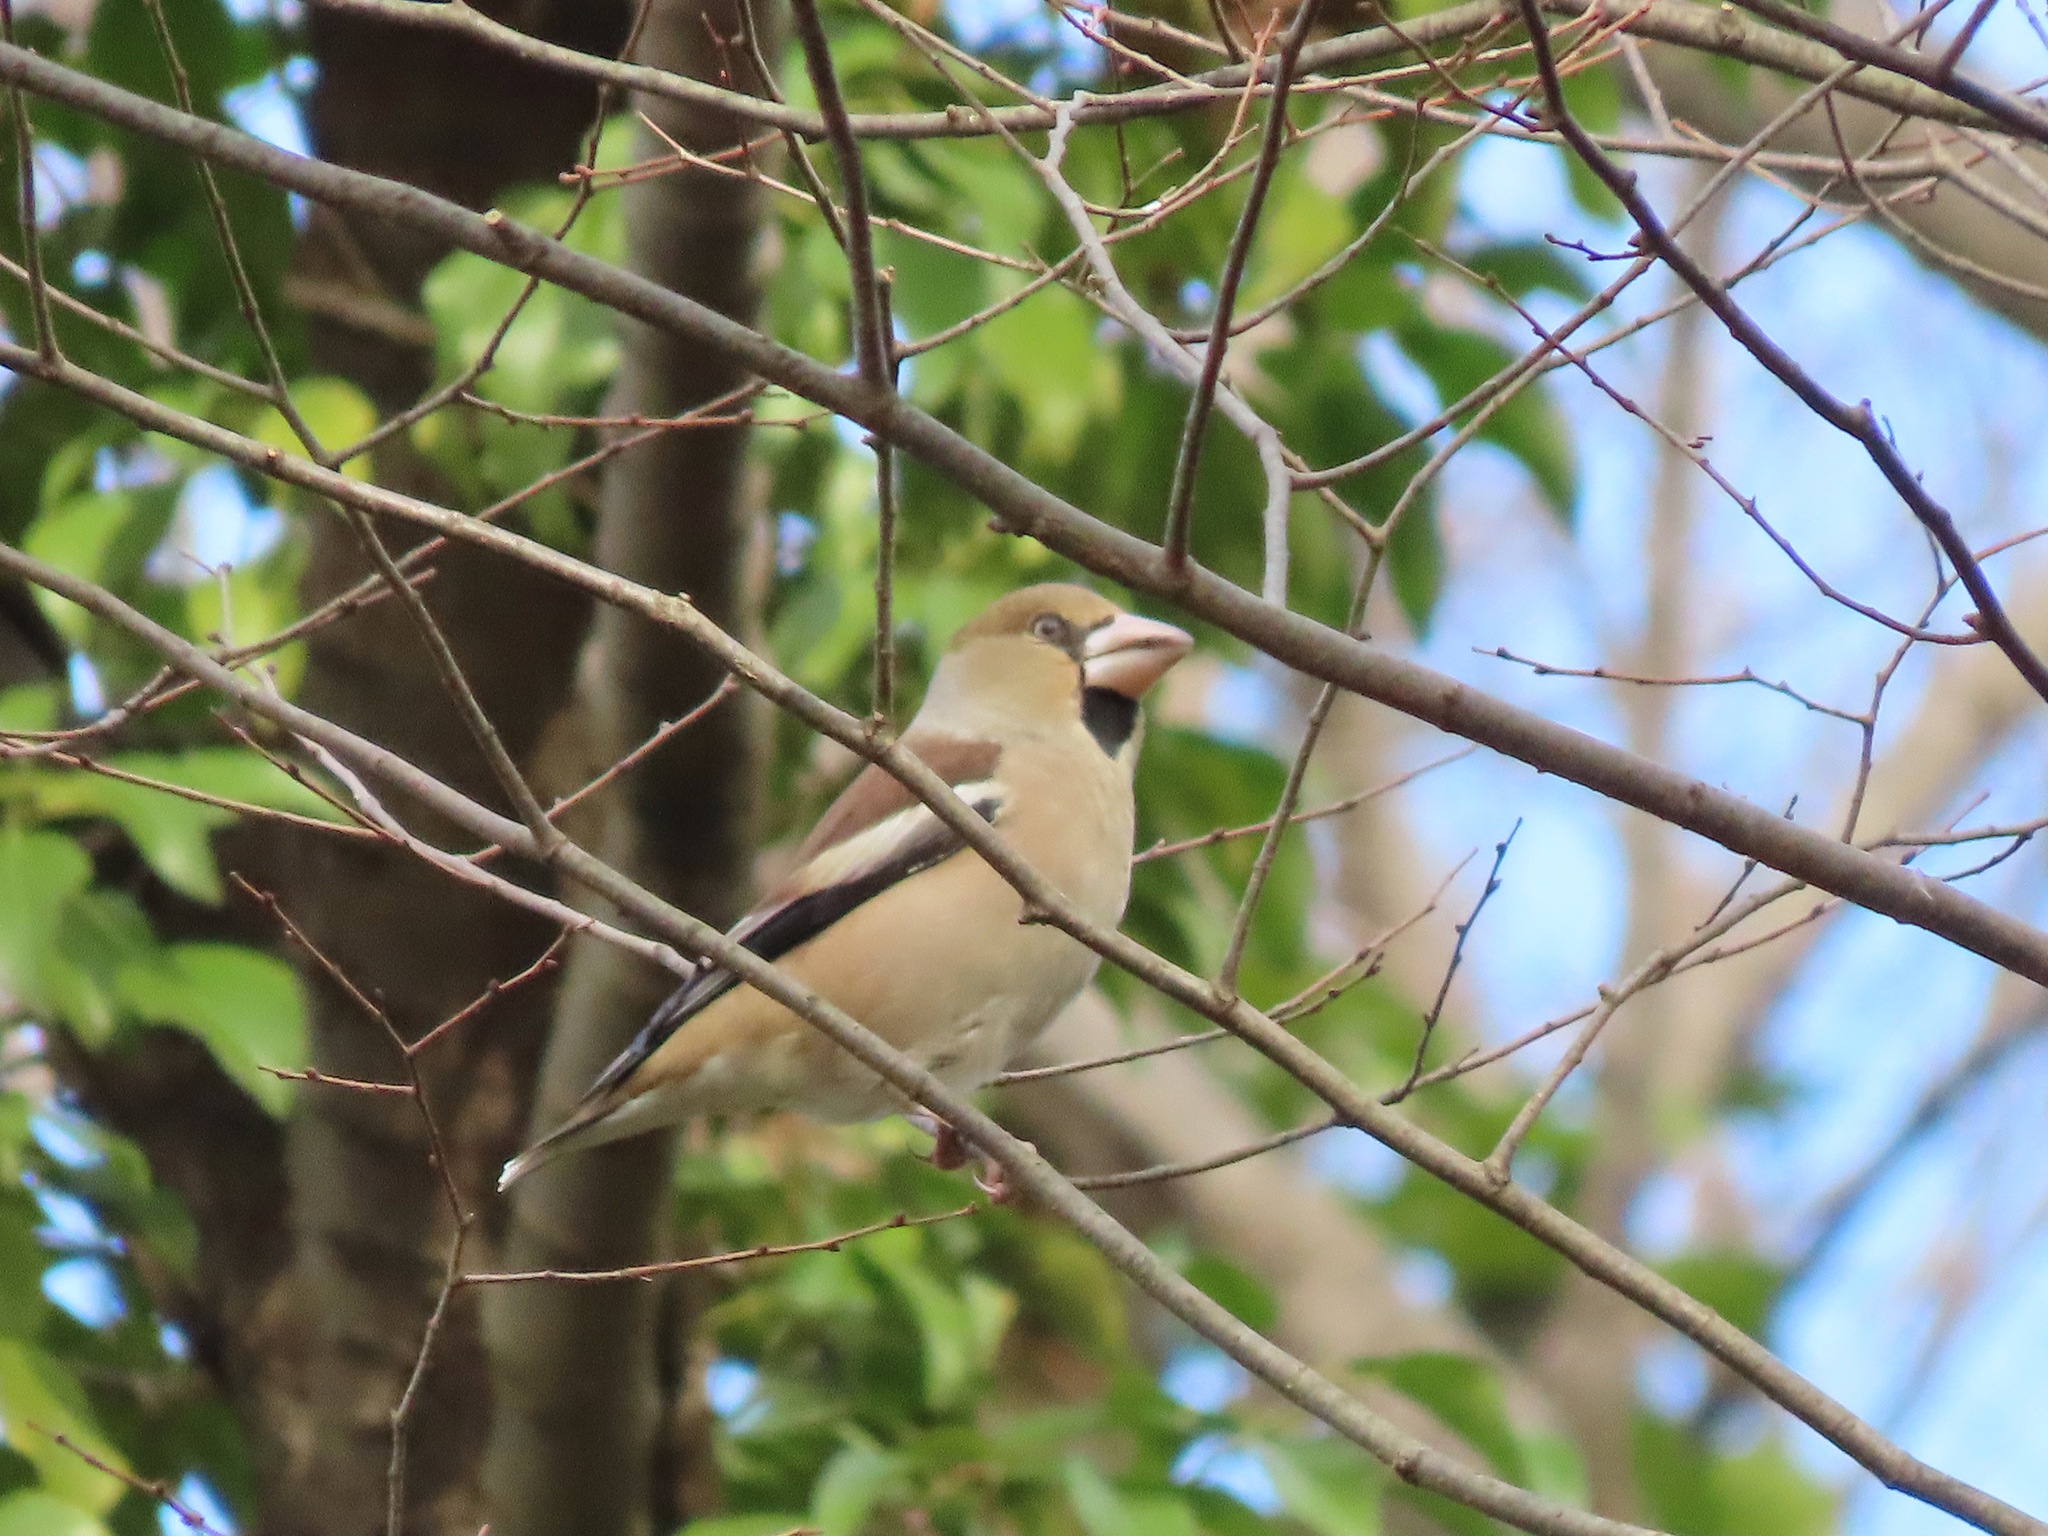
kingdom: Animalia
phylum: Chordata
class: Aves
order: Passeriformes
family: Fringillidae
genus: Coccothraustes
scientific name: Coccothraustes coccothraustes
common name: Hawfinch
